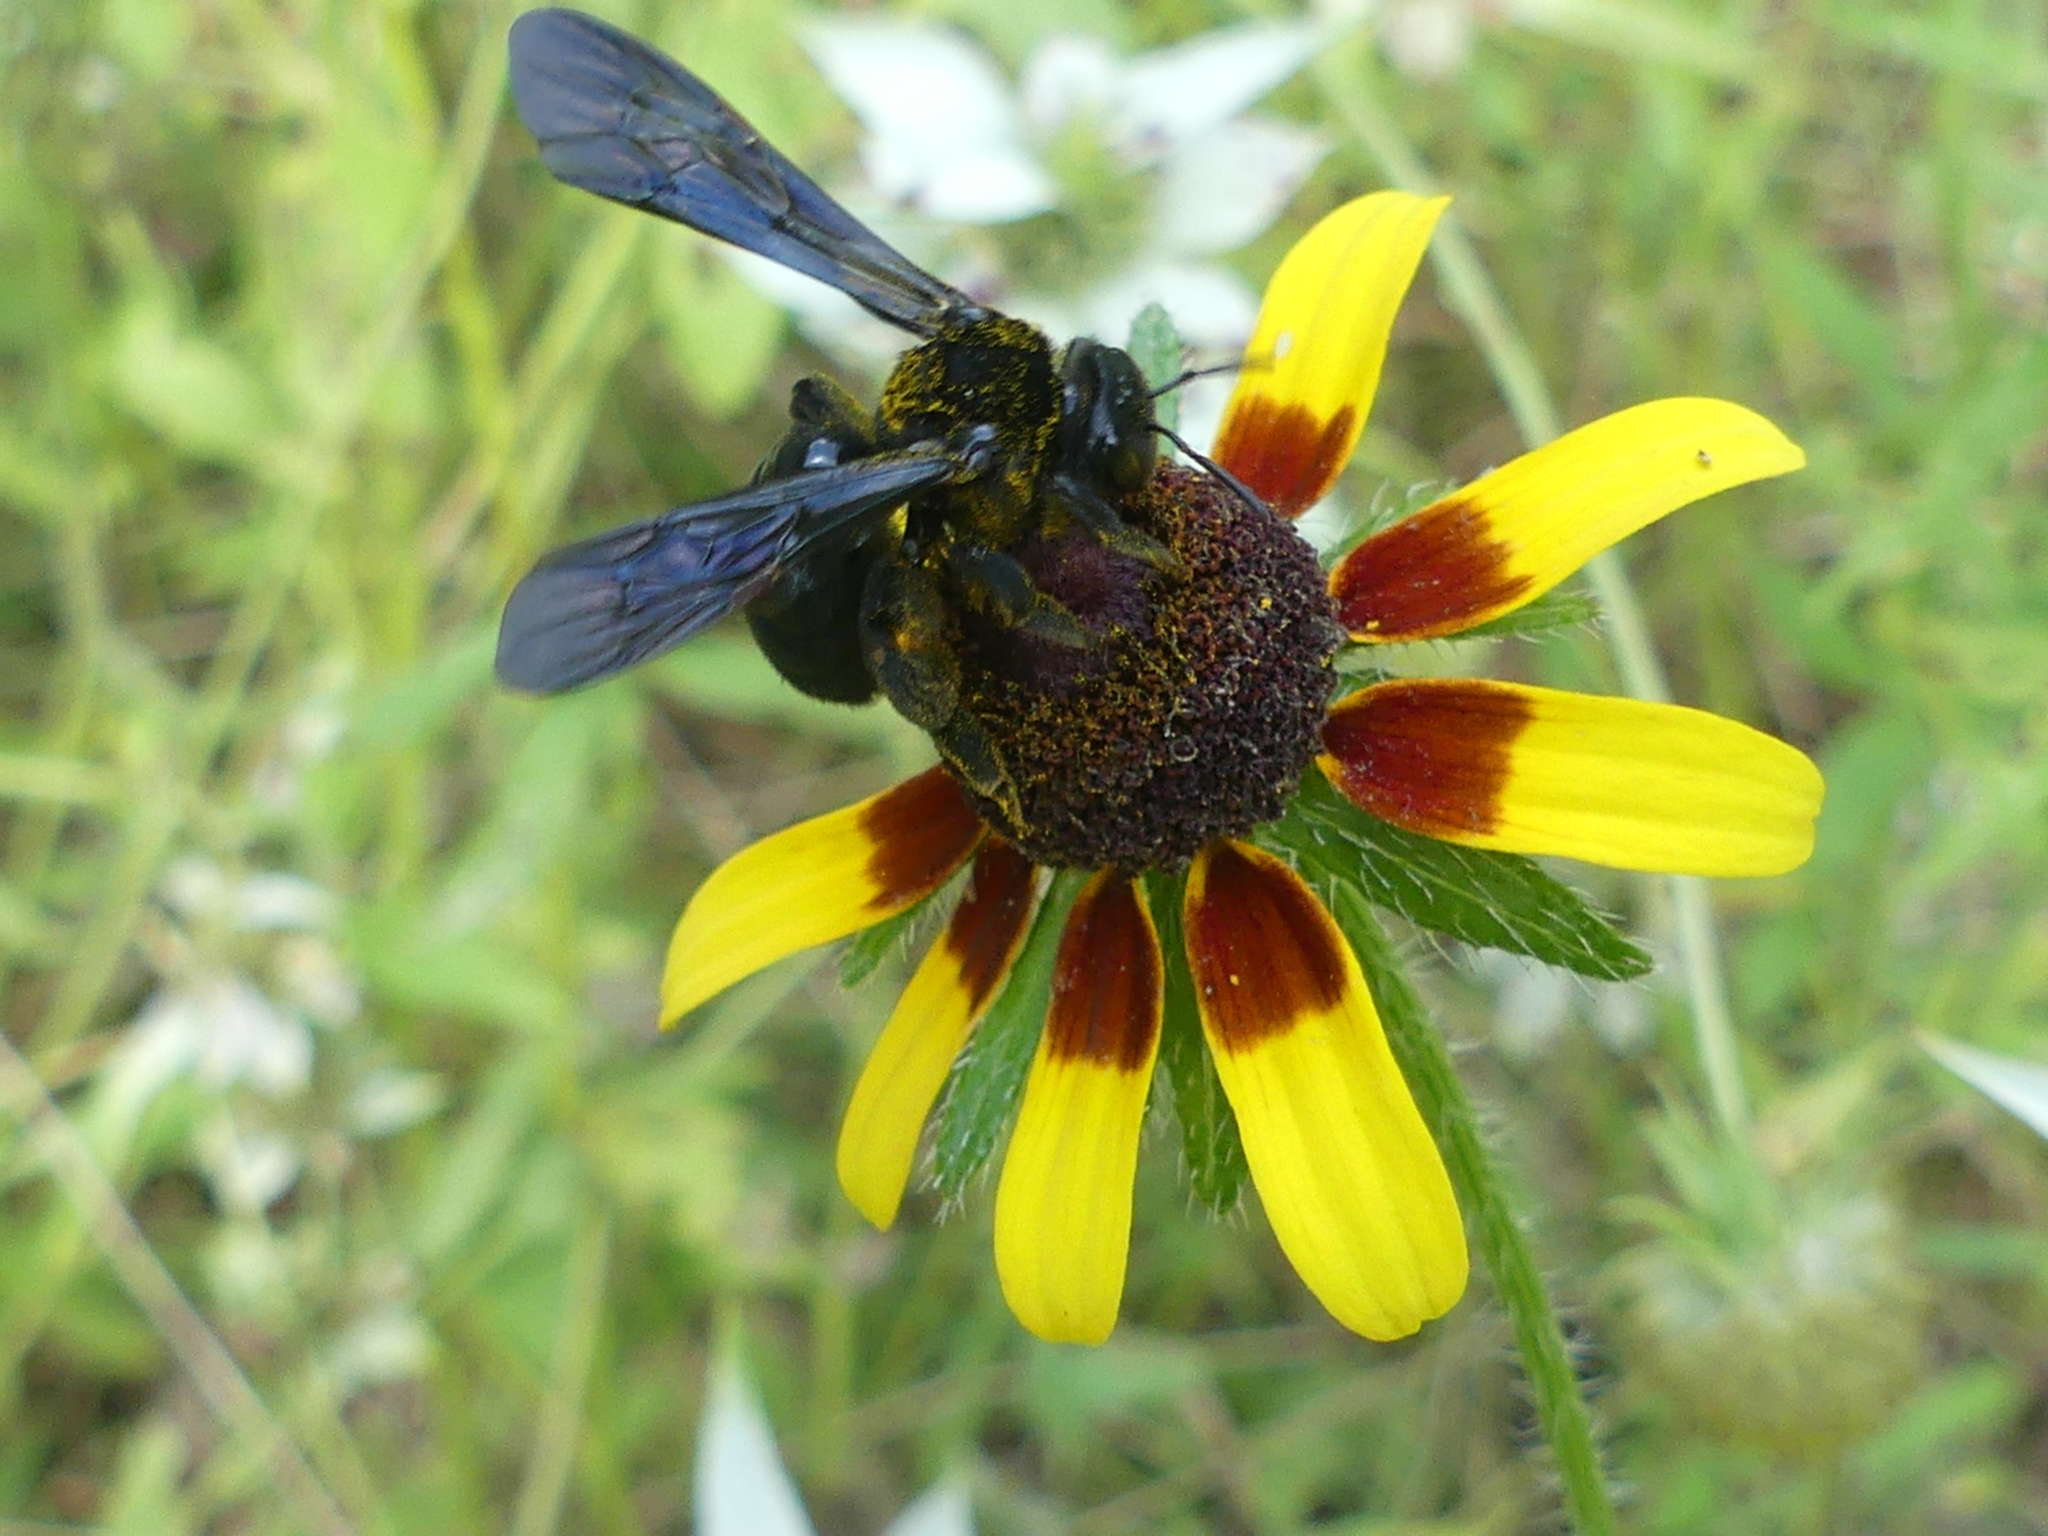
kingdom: Animalia
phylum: Arthropoda
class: Insecta
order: Hymenoptera
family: Halictidae
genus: Dieunomia
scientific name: Dieunomia heteropoda
